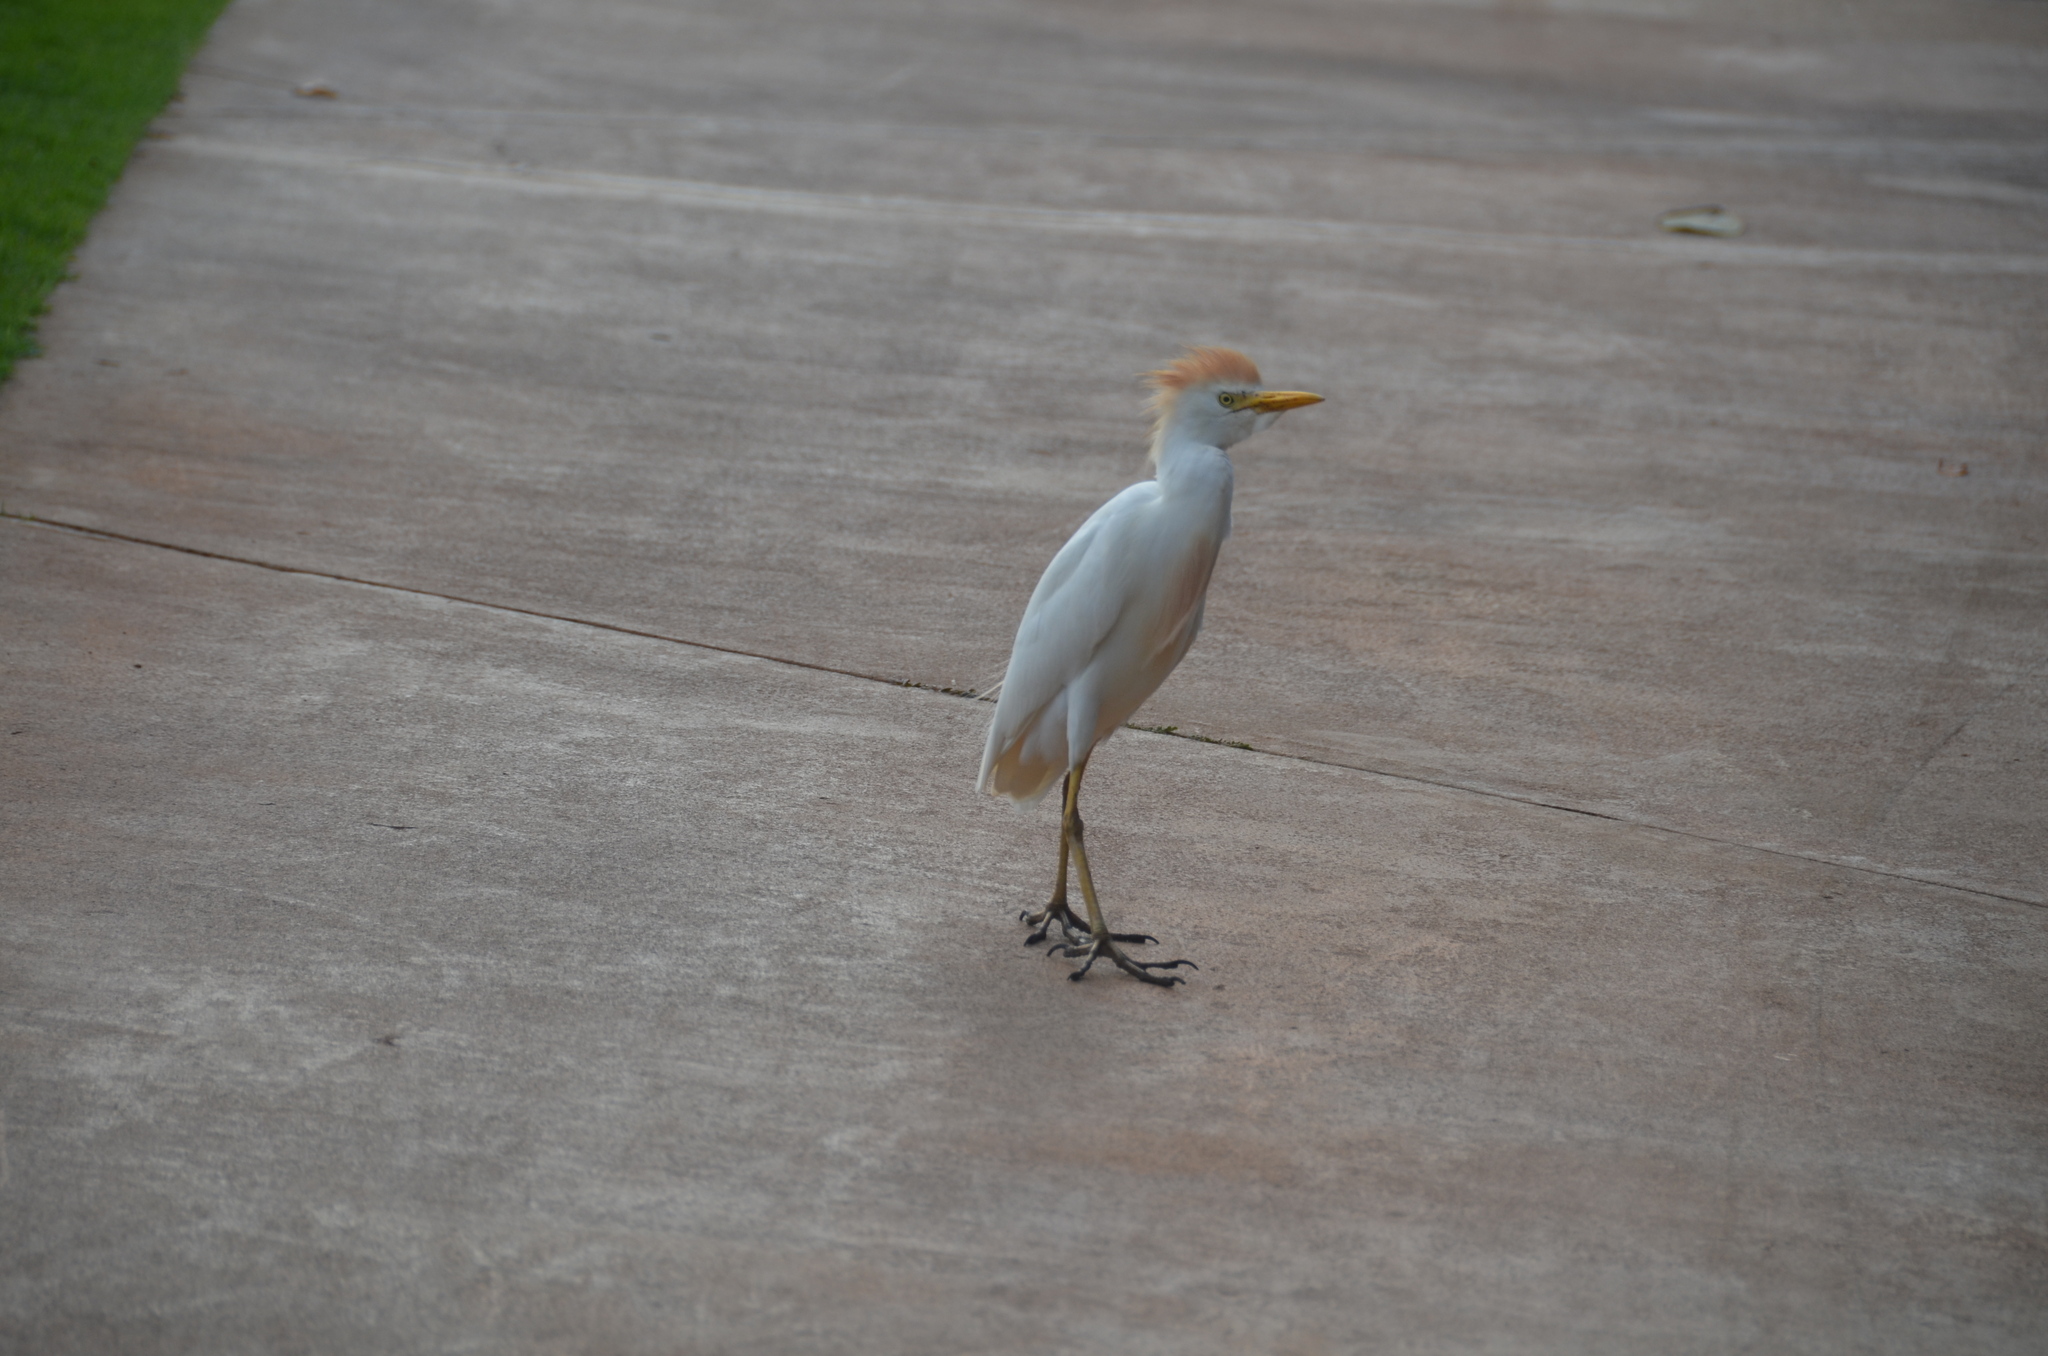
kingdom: Animalia
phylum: Chordata
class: Aves
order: Pelecaniformes
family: Ardeidae
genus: Bubulcus
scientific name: Bubulcus ibis
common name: Cattle egret
